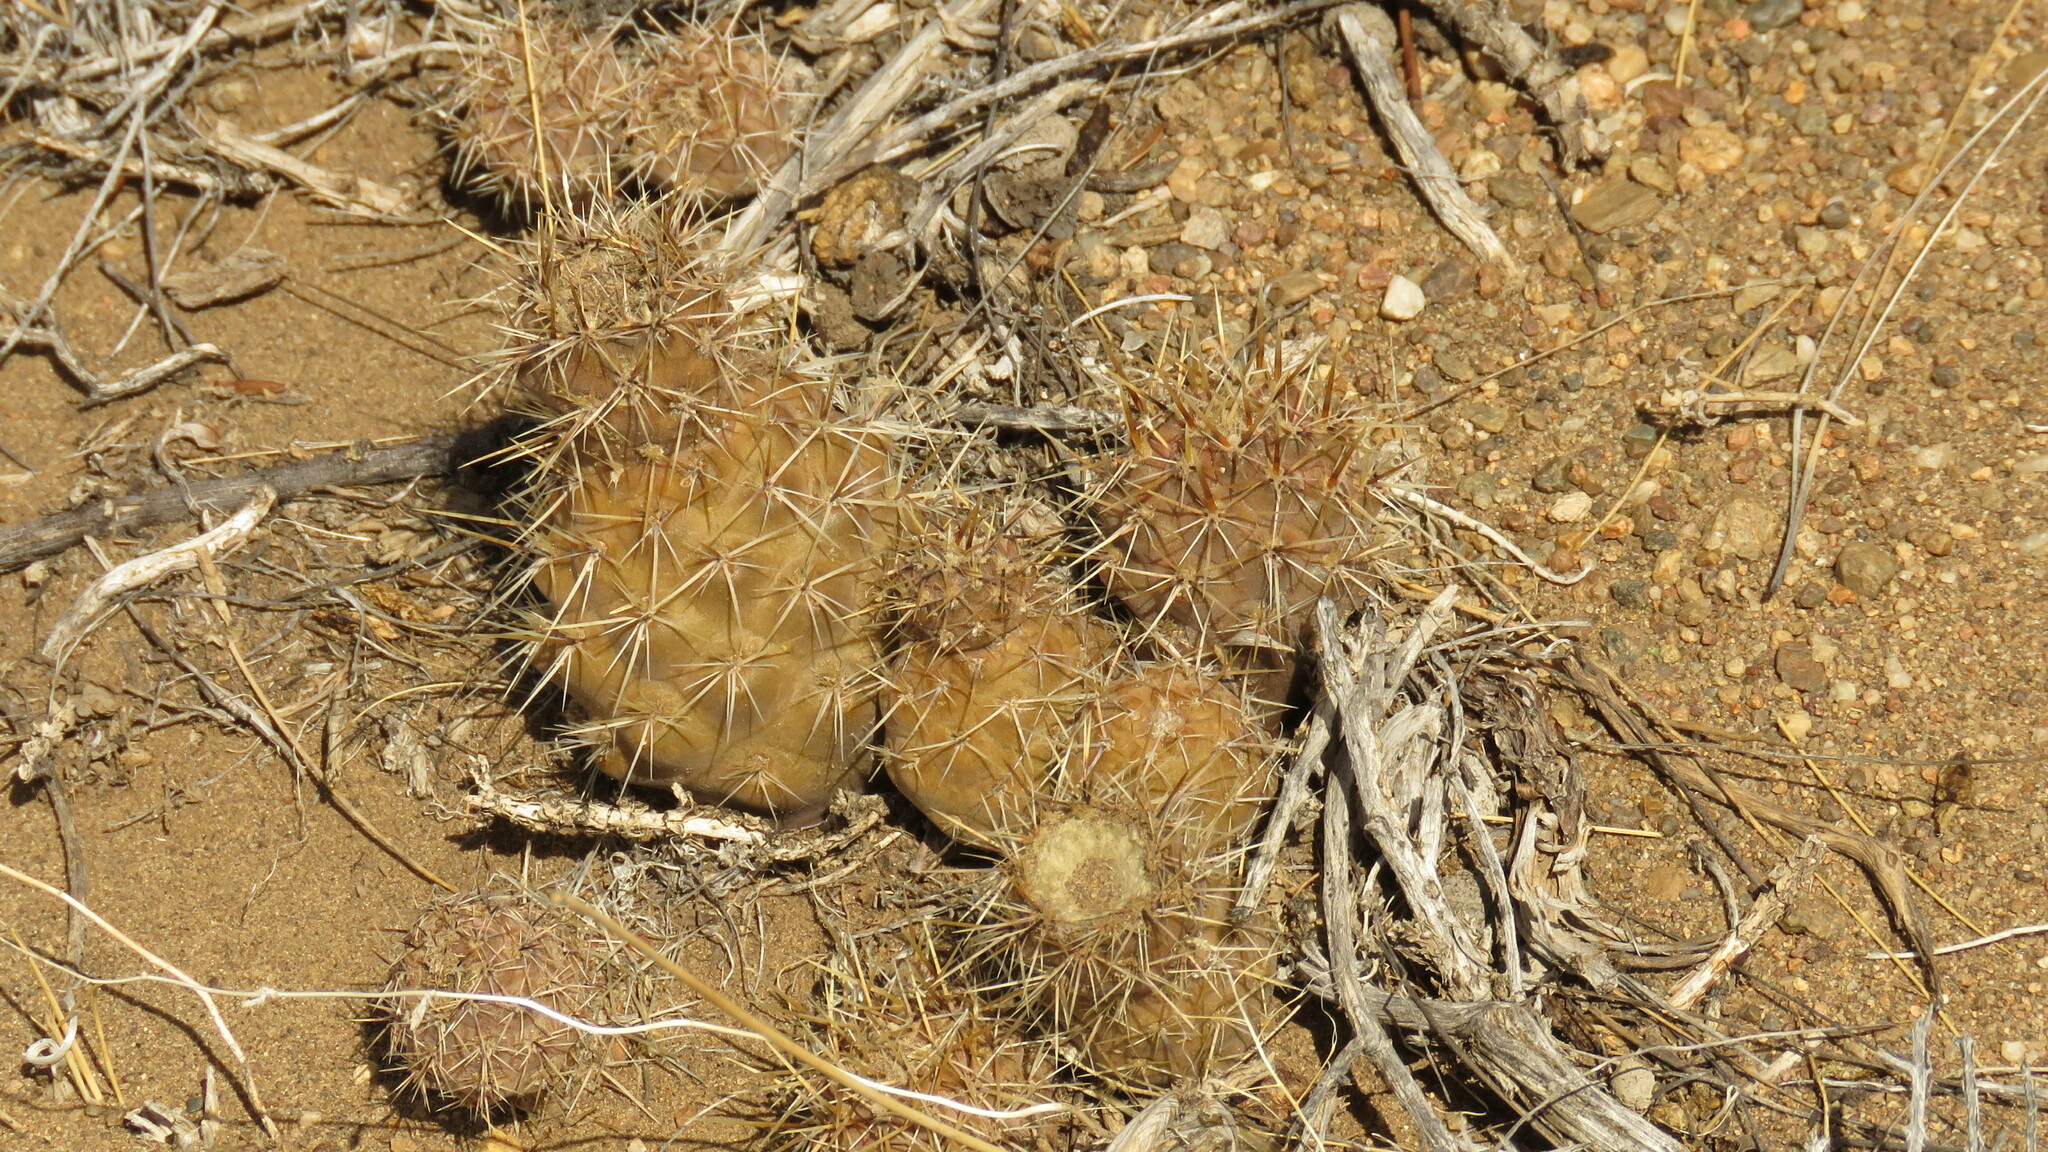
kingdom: Plantae
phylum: Tracheophyta
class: Magnoliopsida
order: Caryophyllales
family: Cactaceae
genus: Pterocactus
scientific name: Pterocactus hickenii
